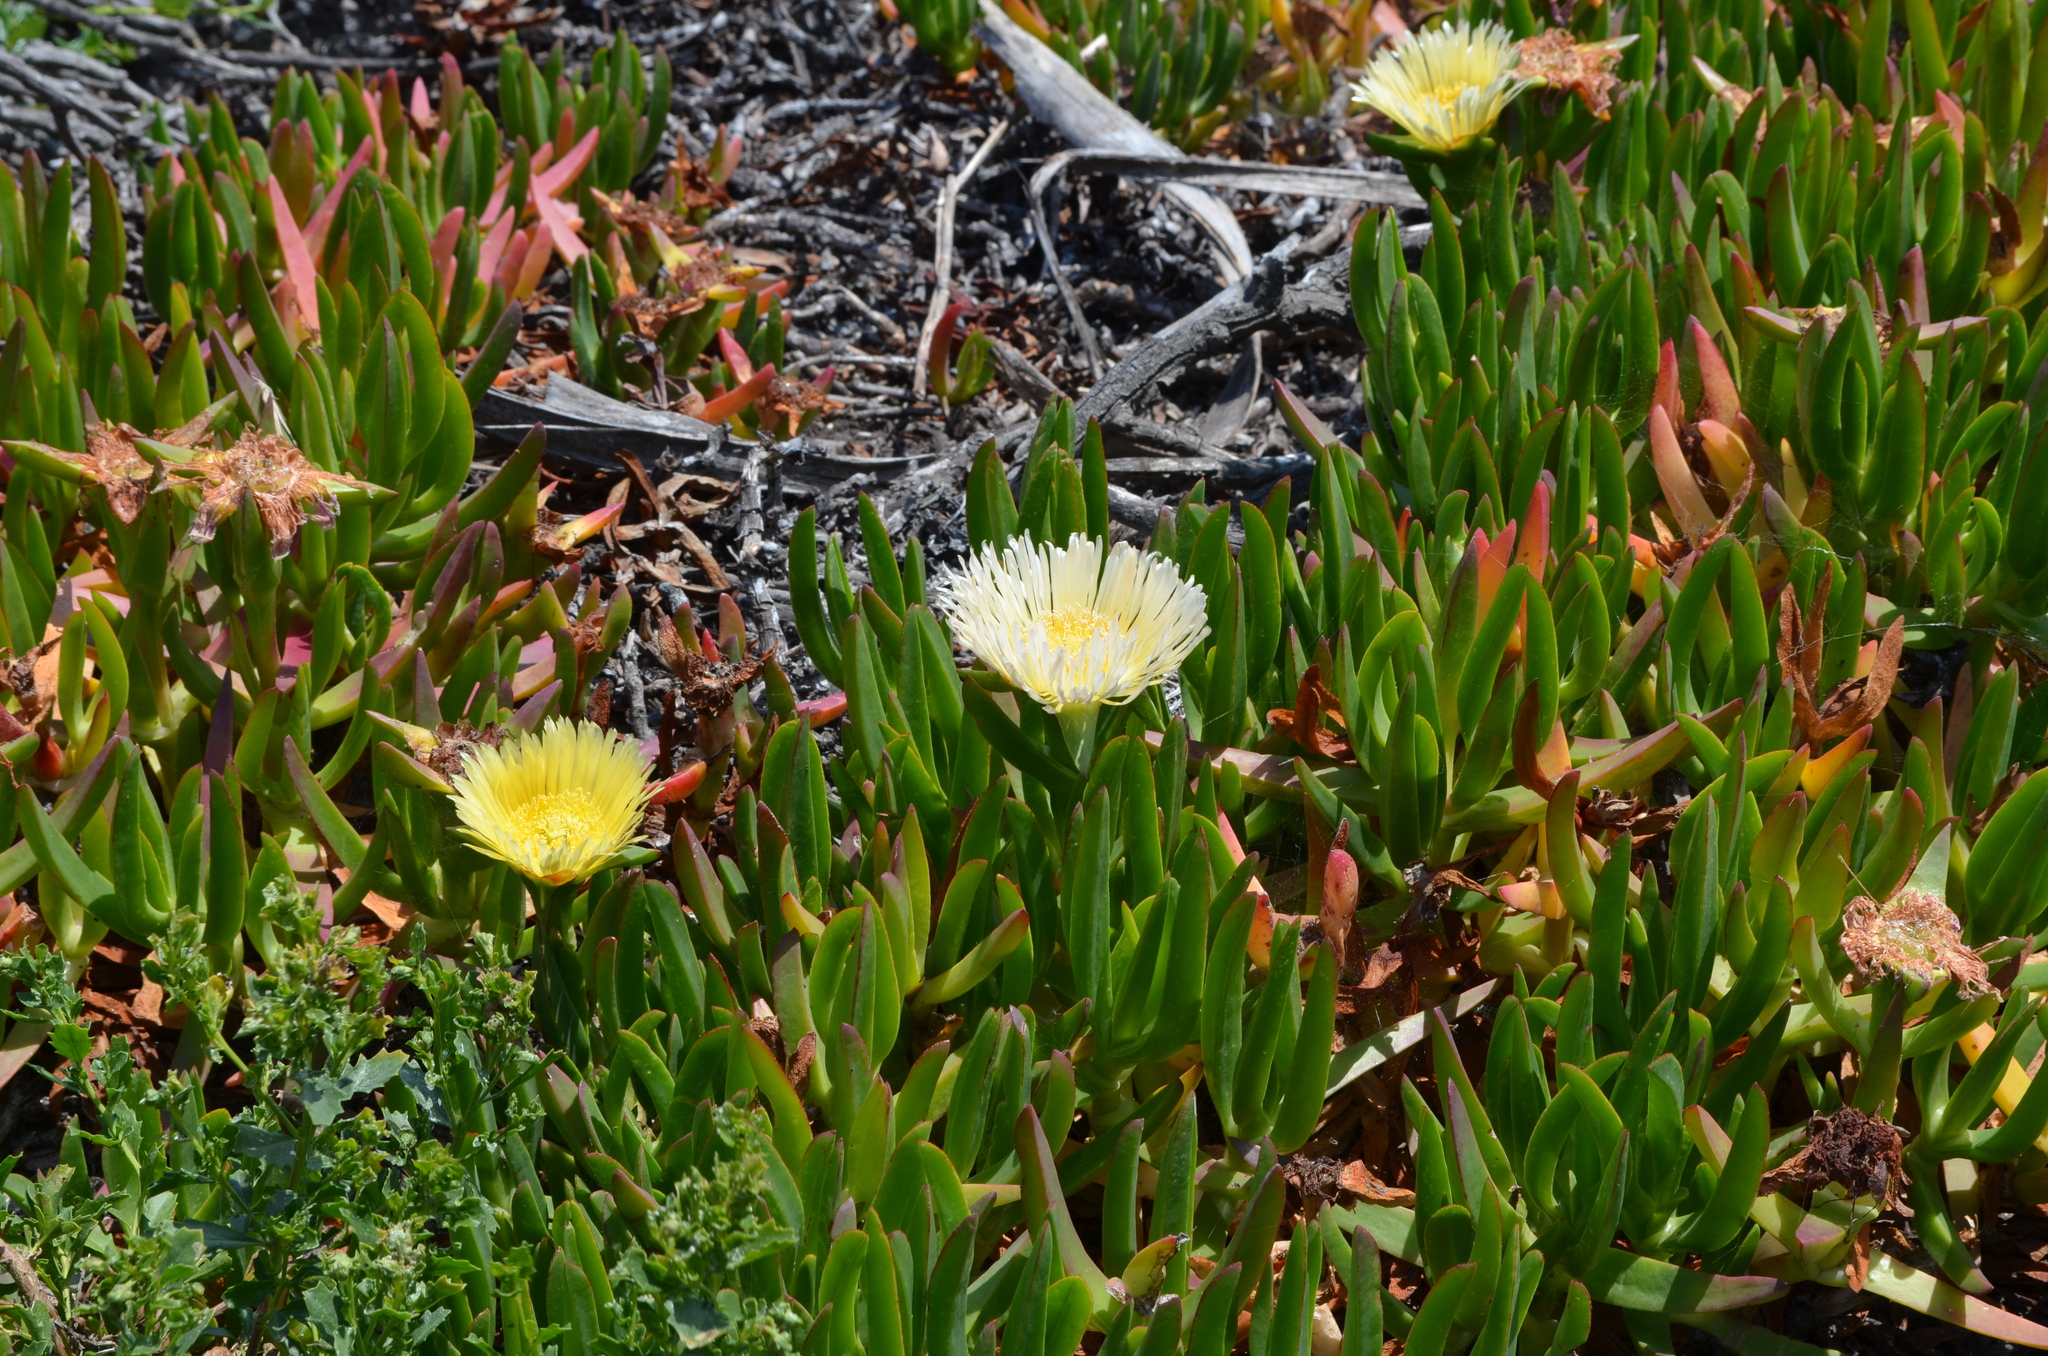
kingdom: Plantae
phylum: Tracheophyta
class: Magnoliopsida
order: Caryophyllales
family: Aizoaceae
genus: Carpobrotus
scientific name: Carpobrotus edulis
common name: Hottentot-fig
